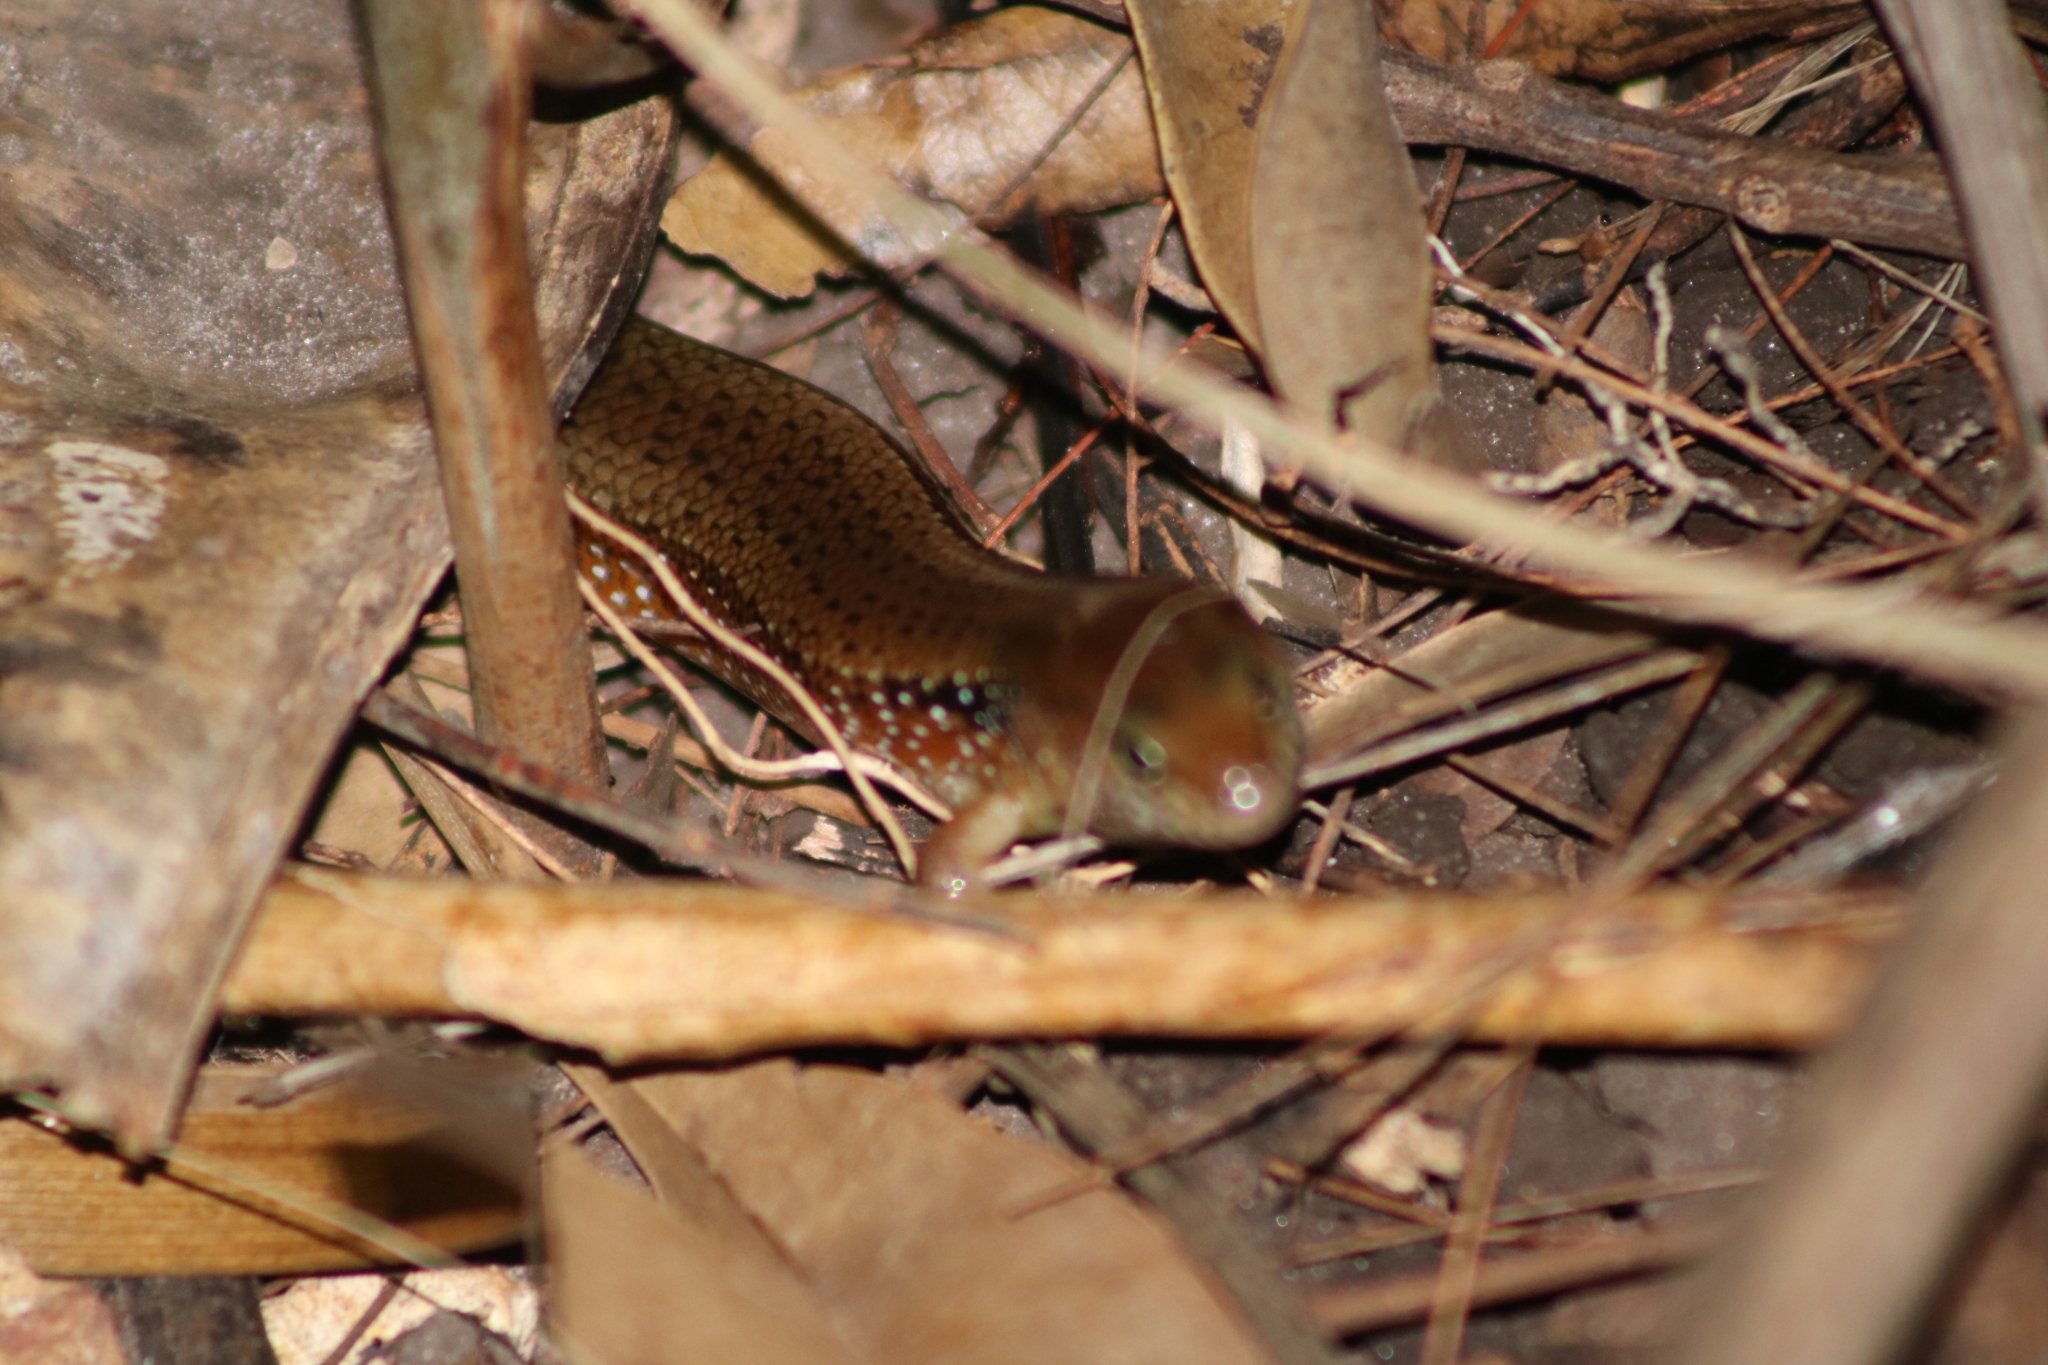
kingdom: Animalia
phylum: Chordata
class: Squamata
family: Scincidae
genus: Eremiascincus
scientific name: Eremiascincus douglasi
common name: Orange-sided bar-lipped skink
